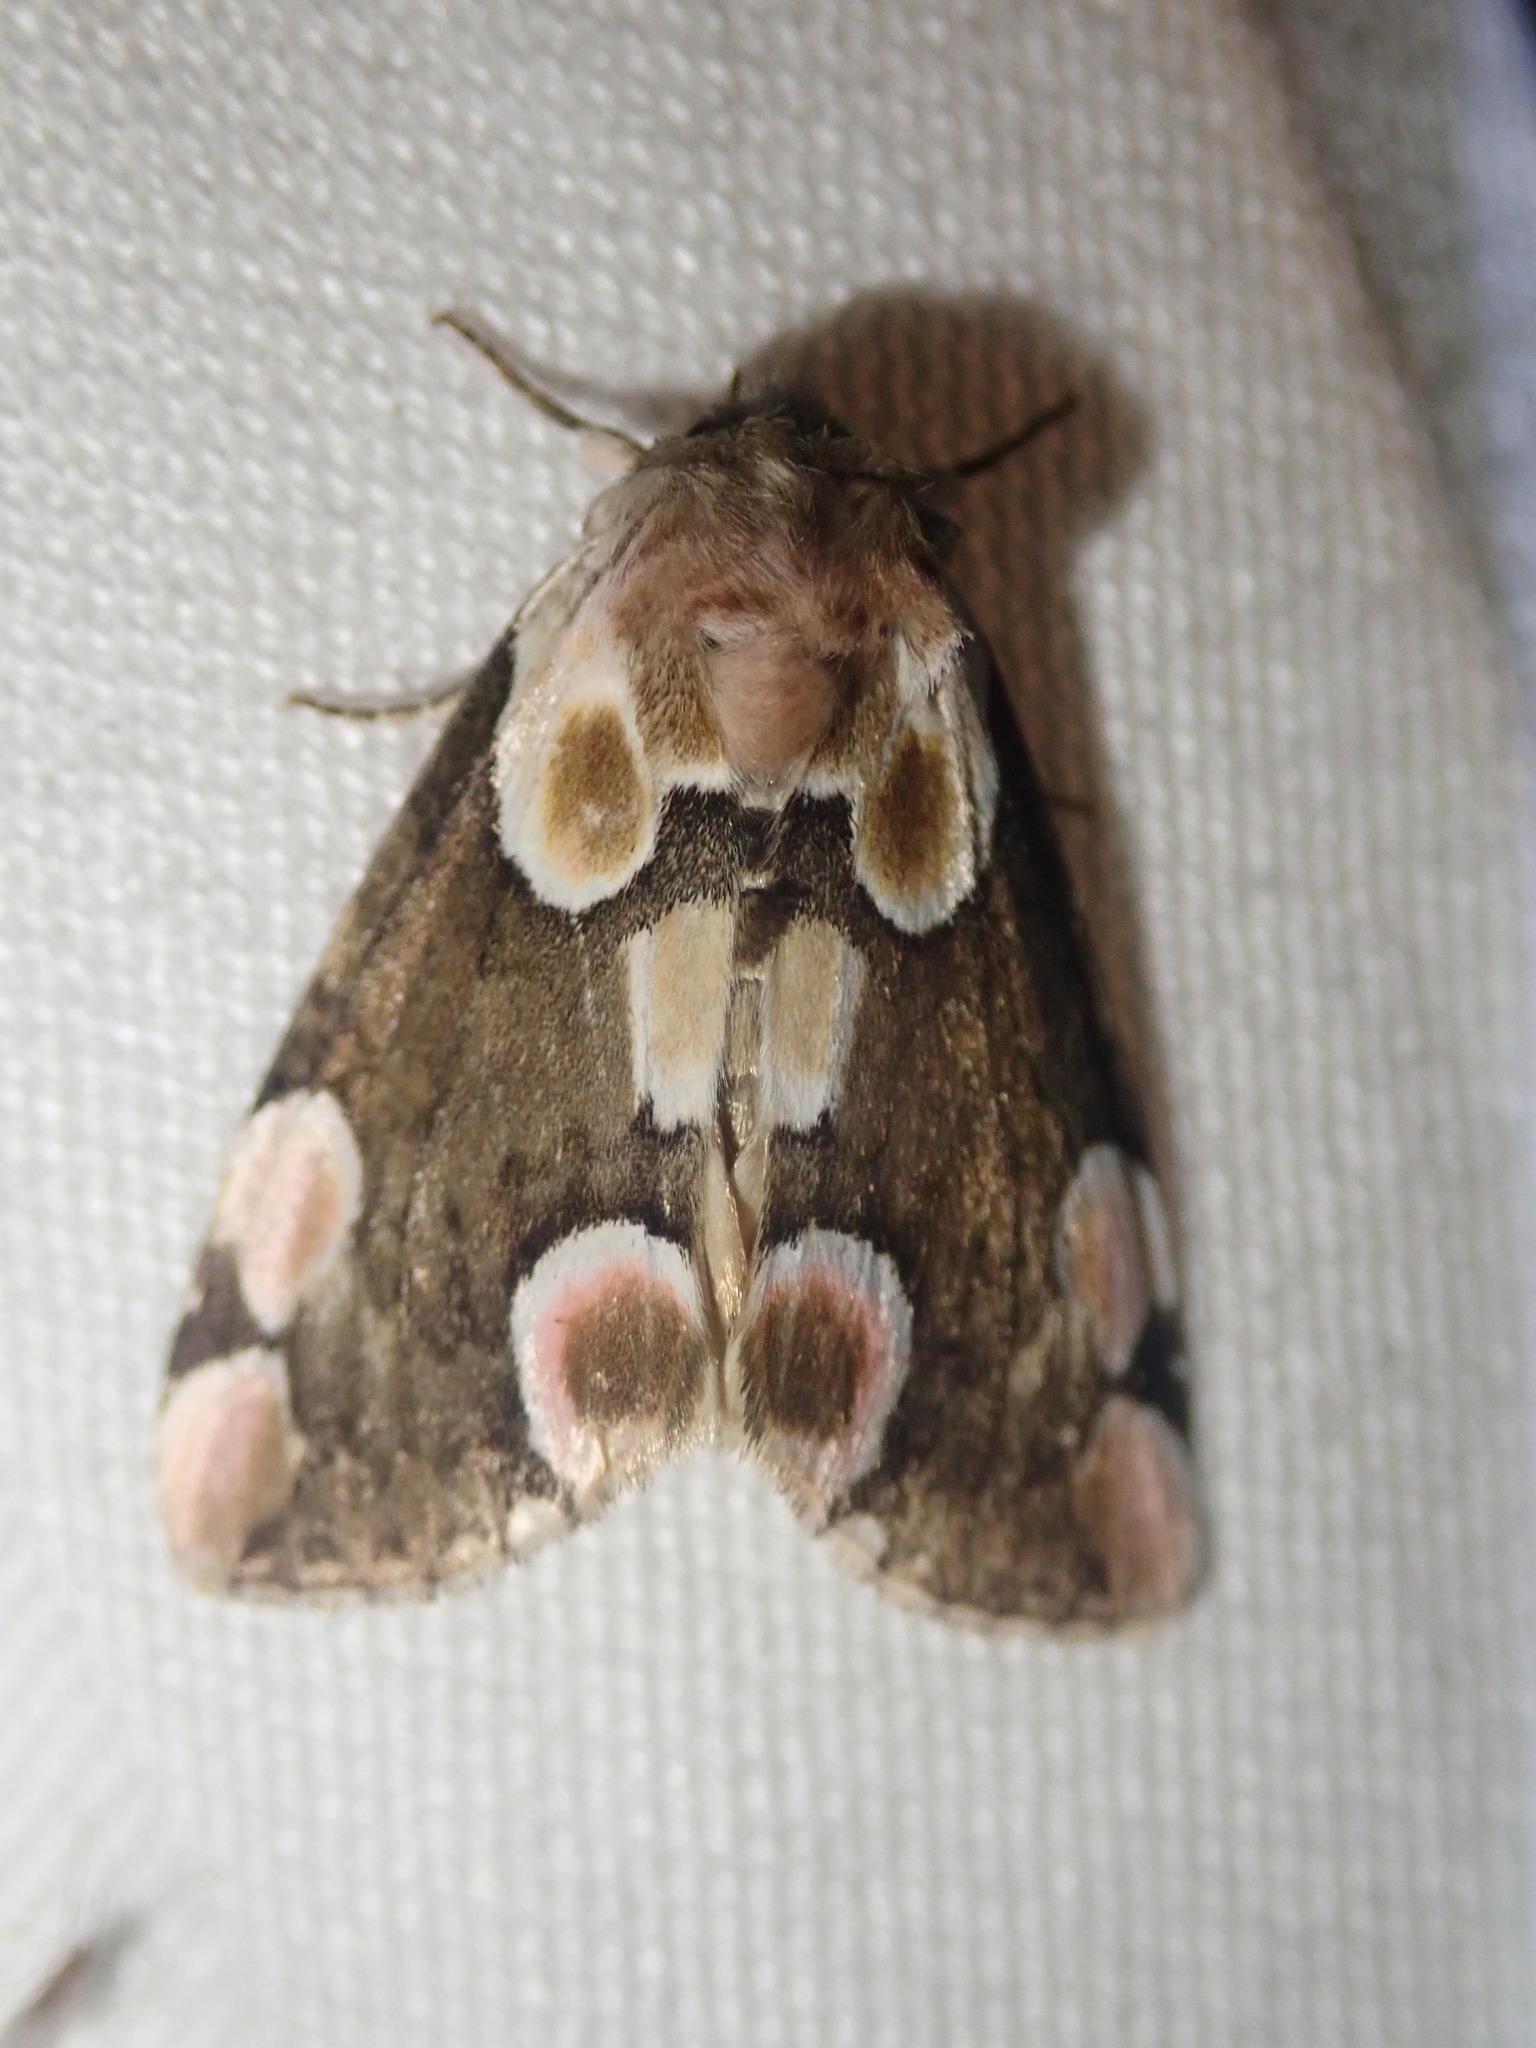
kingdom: Animalia
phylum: Arthropoda
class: Insecta
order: Lepidoptera
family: Drepanidae
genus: Thyatira
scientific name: Thyatira batis
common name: Peach blossom
